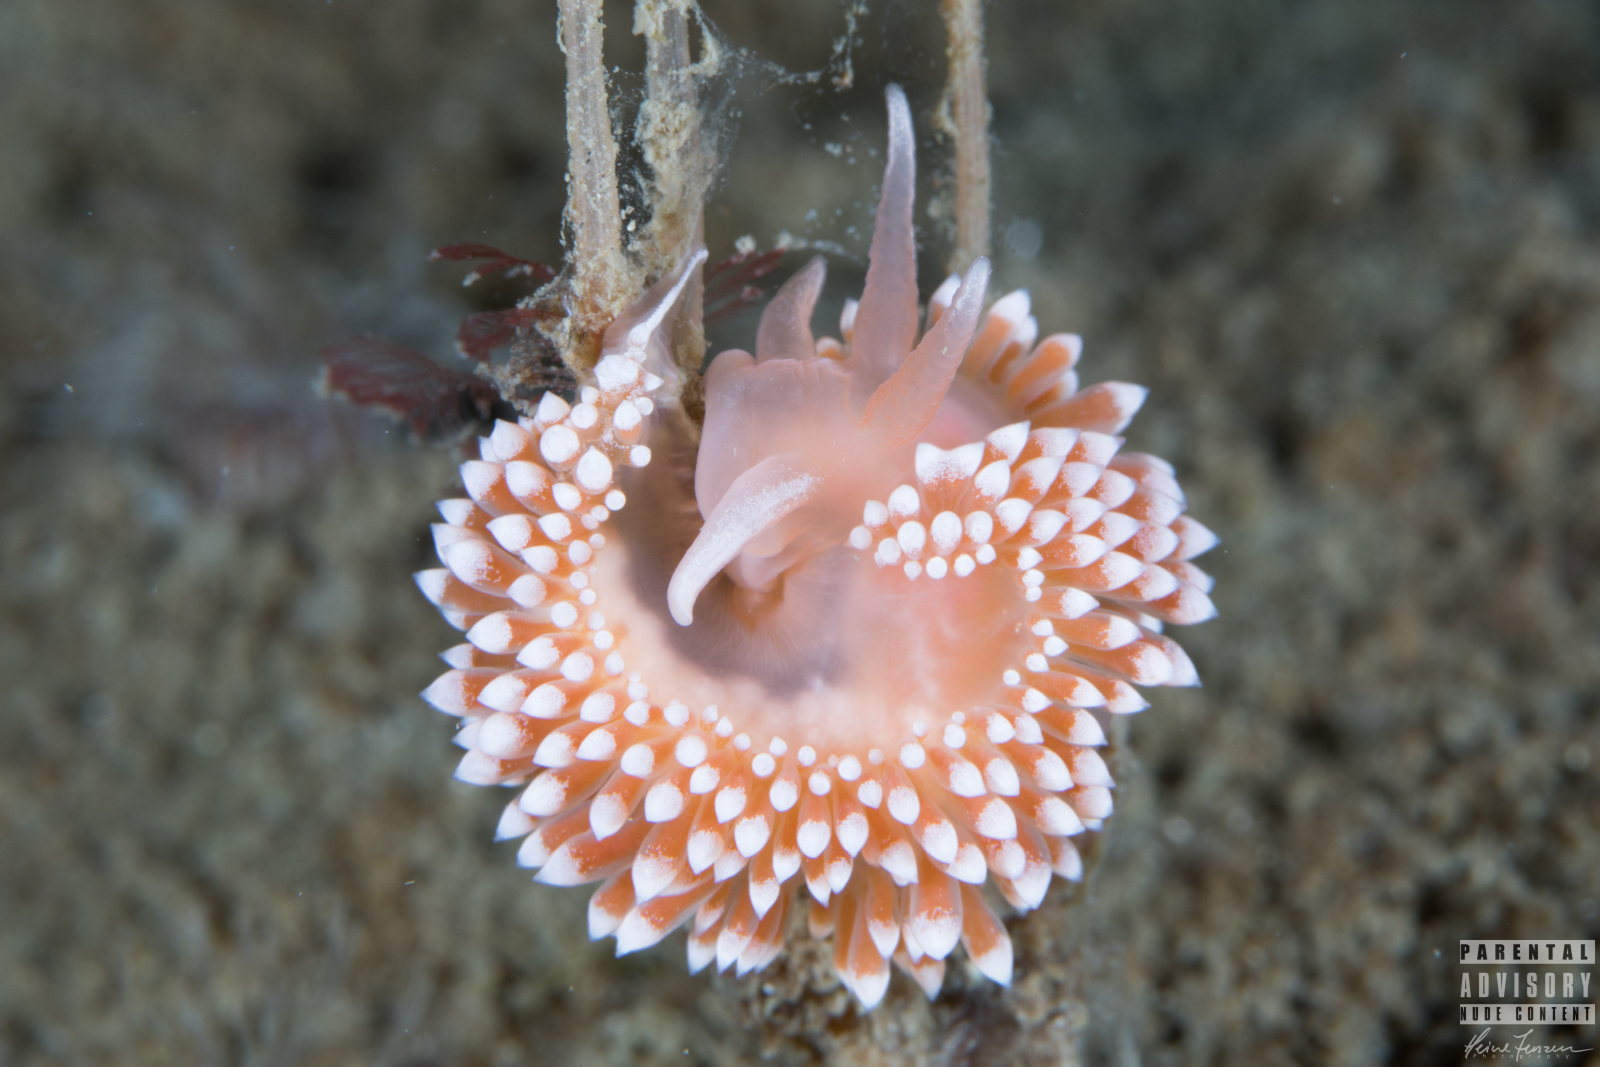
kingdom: Animalia
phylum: Mollusca
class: Gastropoda
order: Nudibranchia
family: Coryphellidae
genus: Coryphella
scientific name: Coryphella verrucosa
